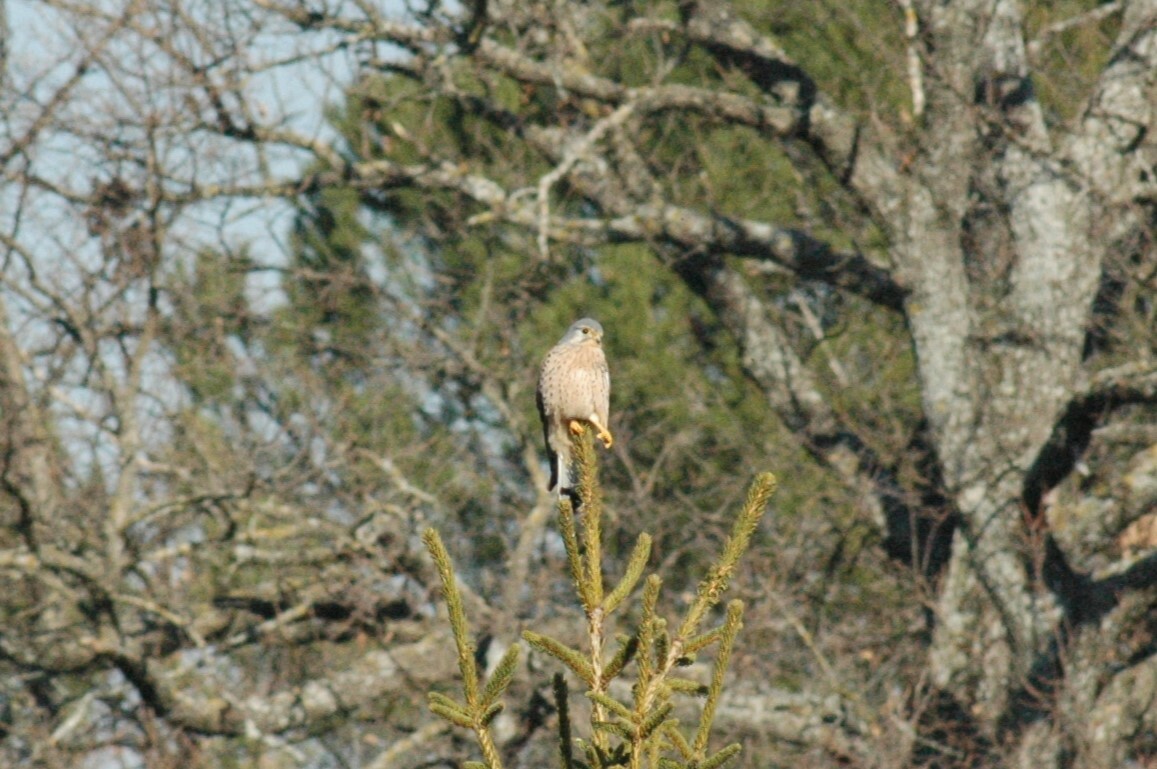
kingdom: Animalia
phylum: Chordata
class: Aves
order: Falconiformes
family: Falconidae
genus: Falco
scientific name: Falco tinnunculus
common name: Common kestrel
